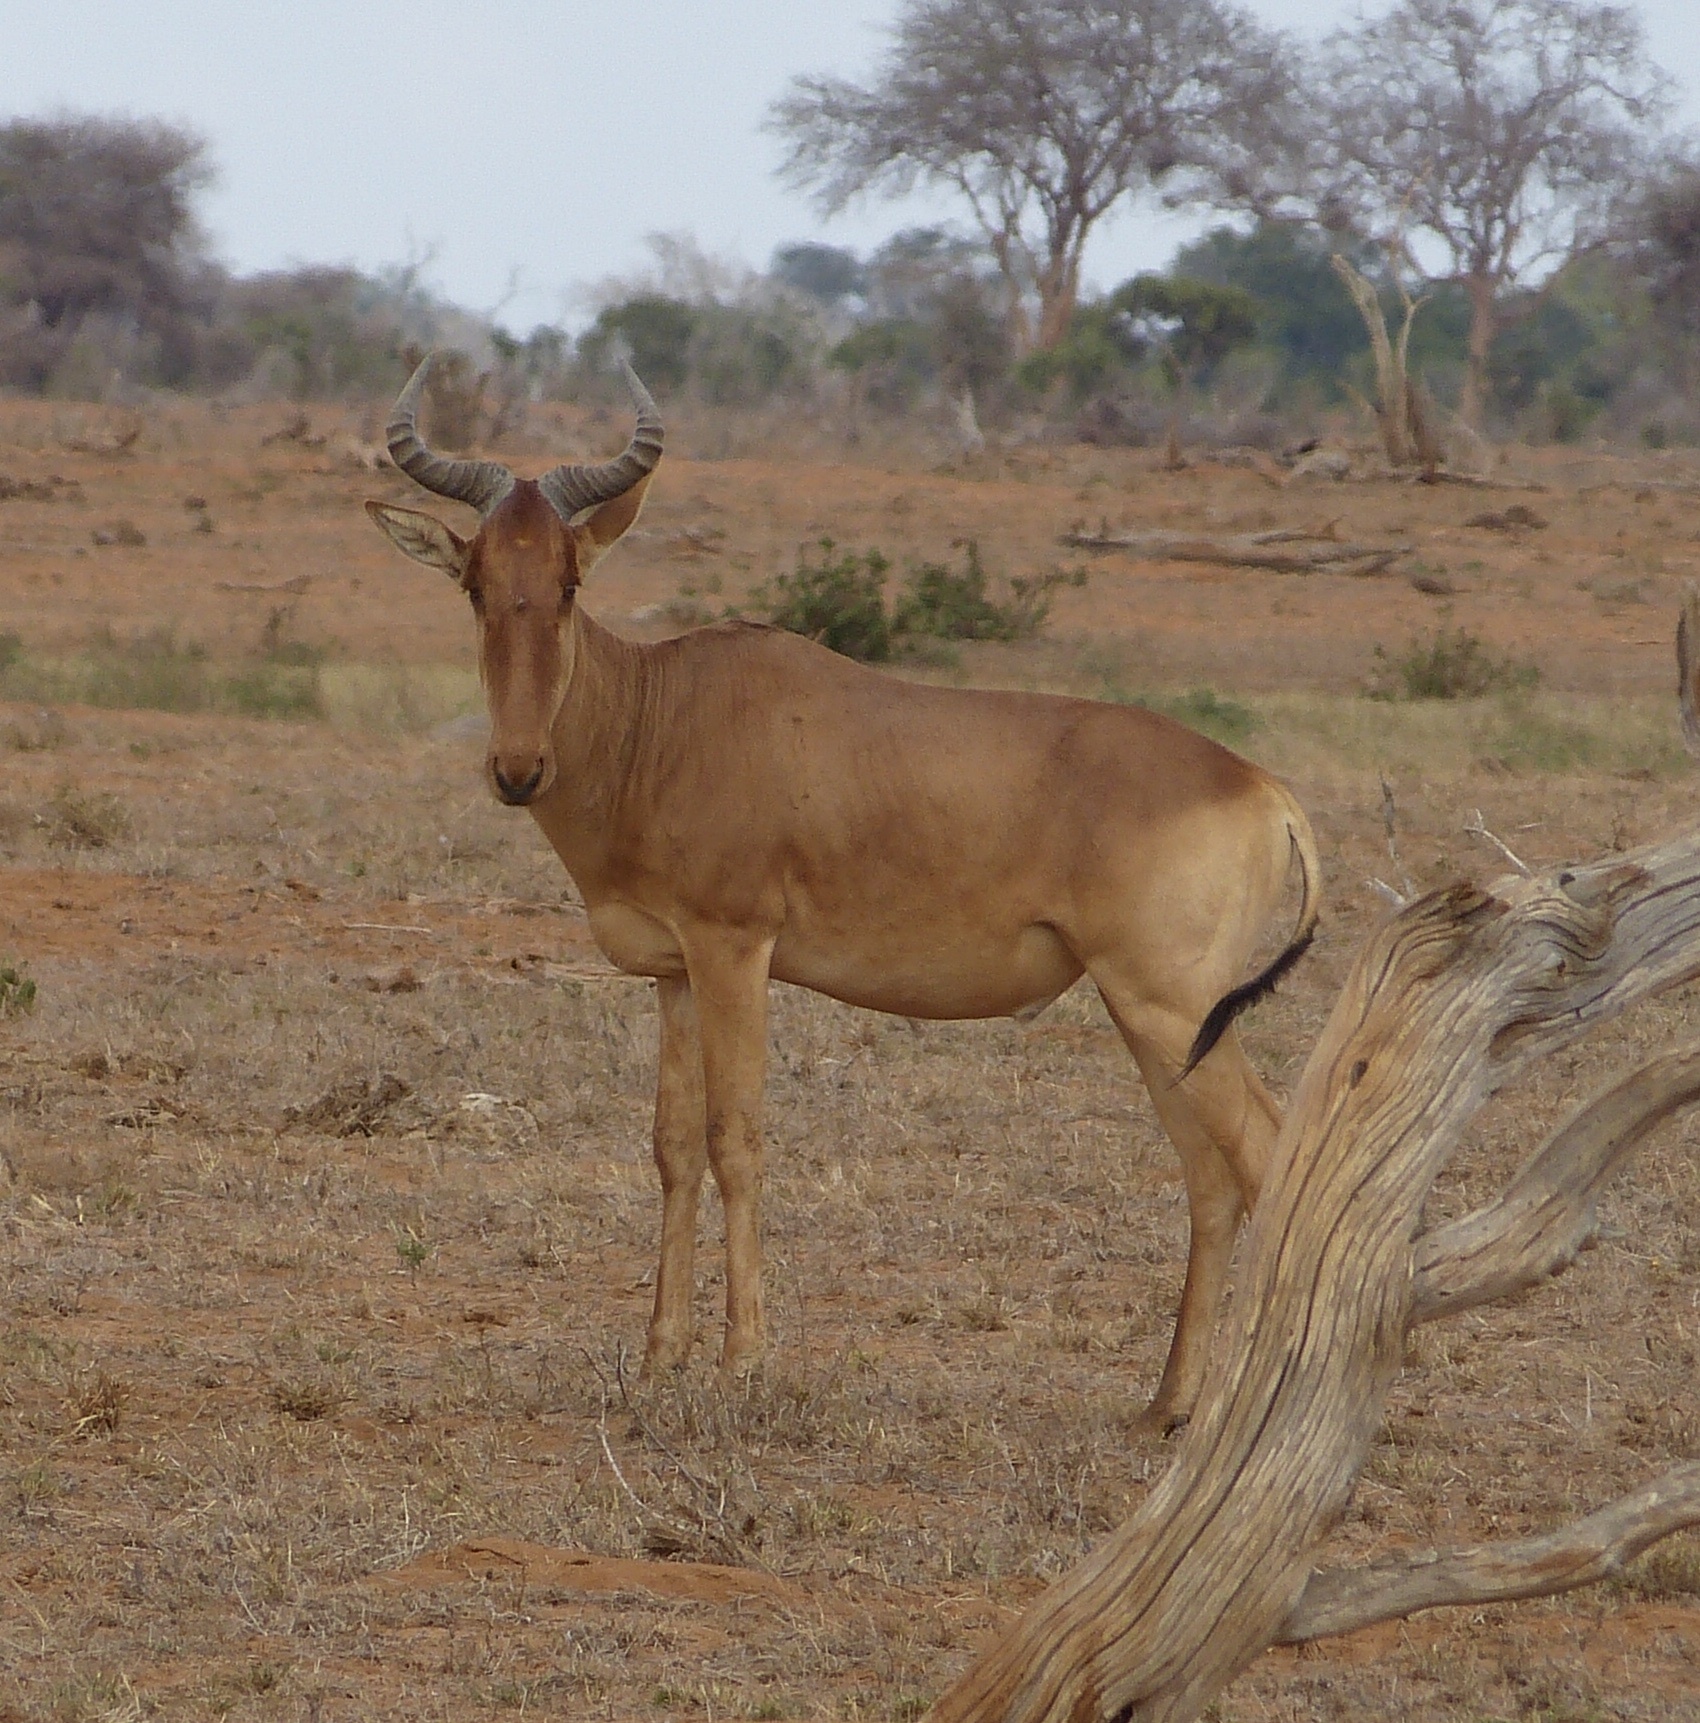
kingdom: Animalia
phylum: Chordata
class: Mammalia
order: Artiodactyla
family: Bovidae
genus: Alcelaphus
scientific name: Alcelaphus buselaphus
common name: Hartebeest
